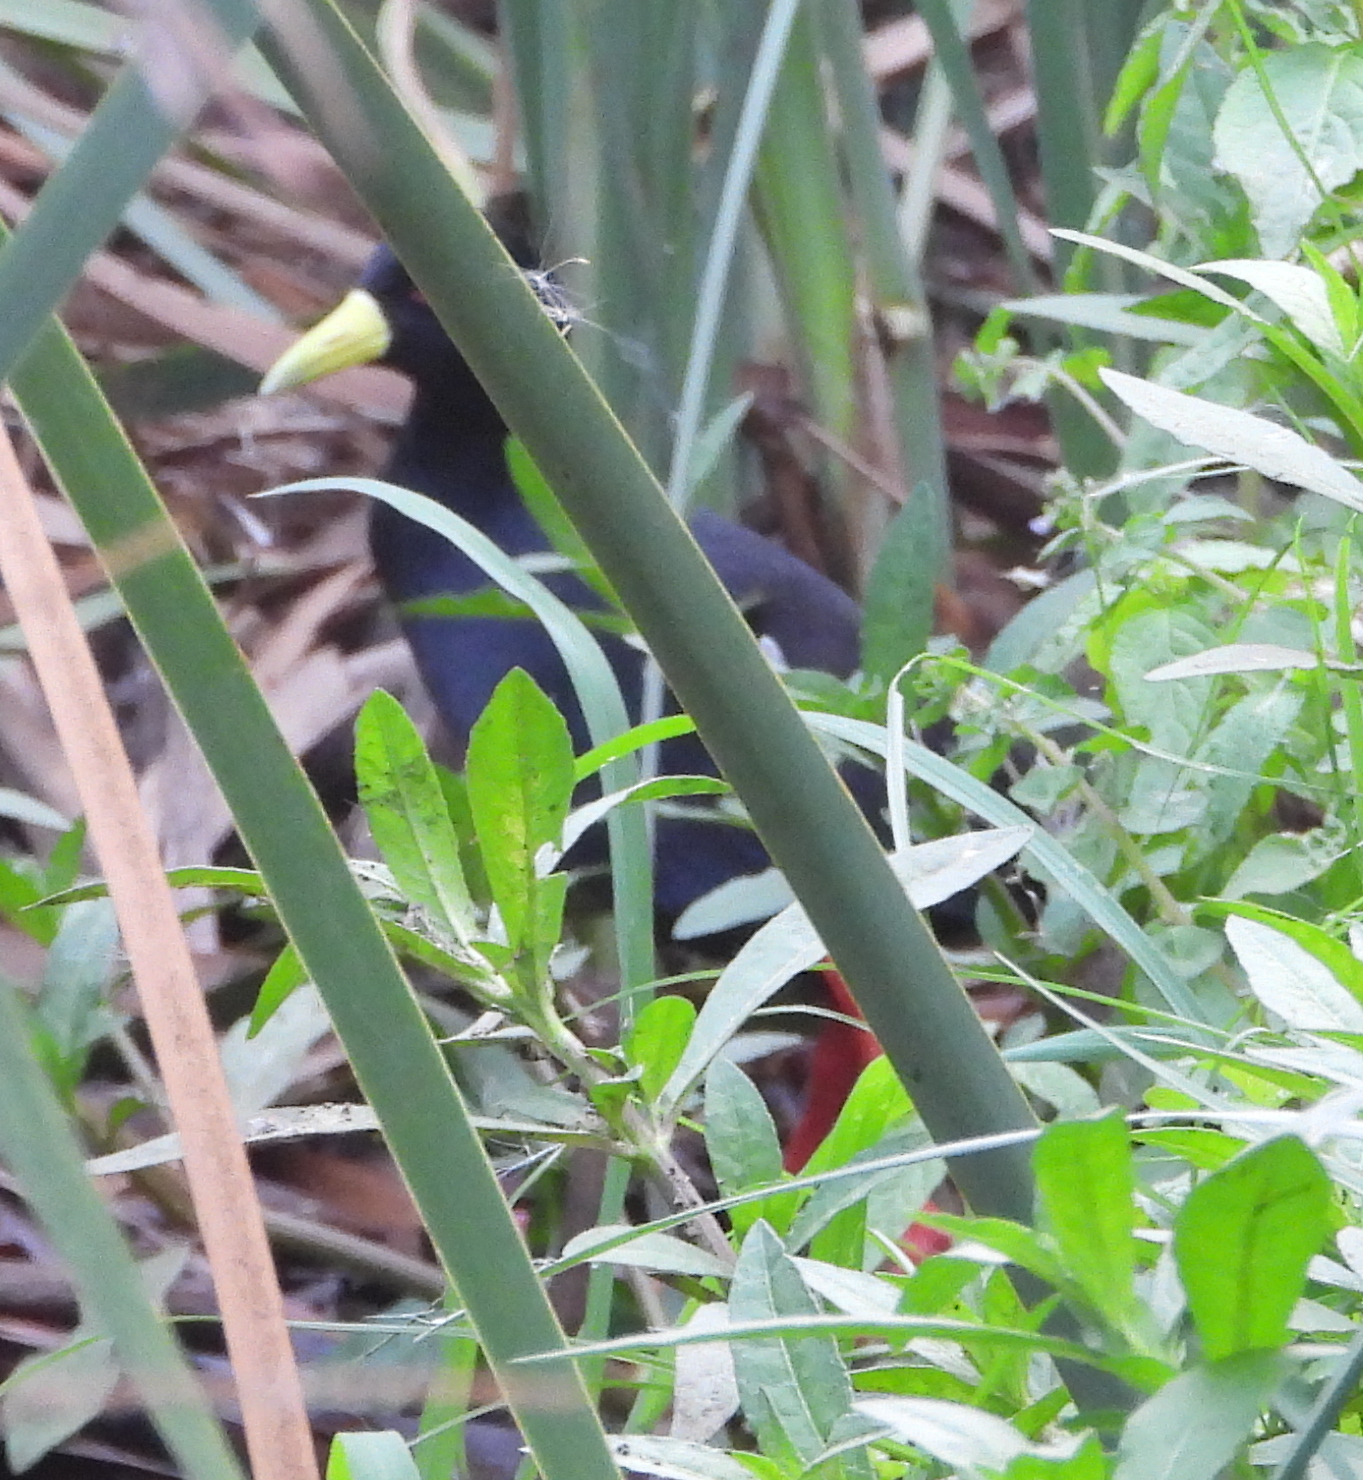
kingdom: Animalia
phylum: Chordata
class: Aves
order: Gruiformes
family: Rallidae
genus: Amaurornis
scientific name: Amaurornis flavirostra
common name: Black crake
